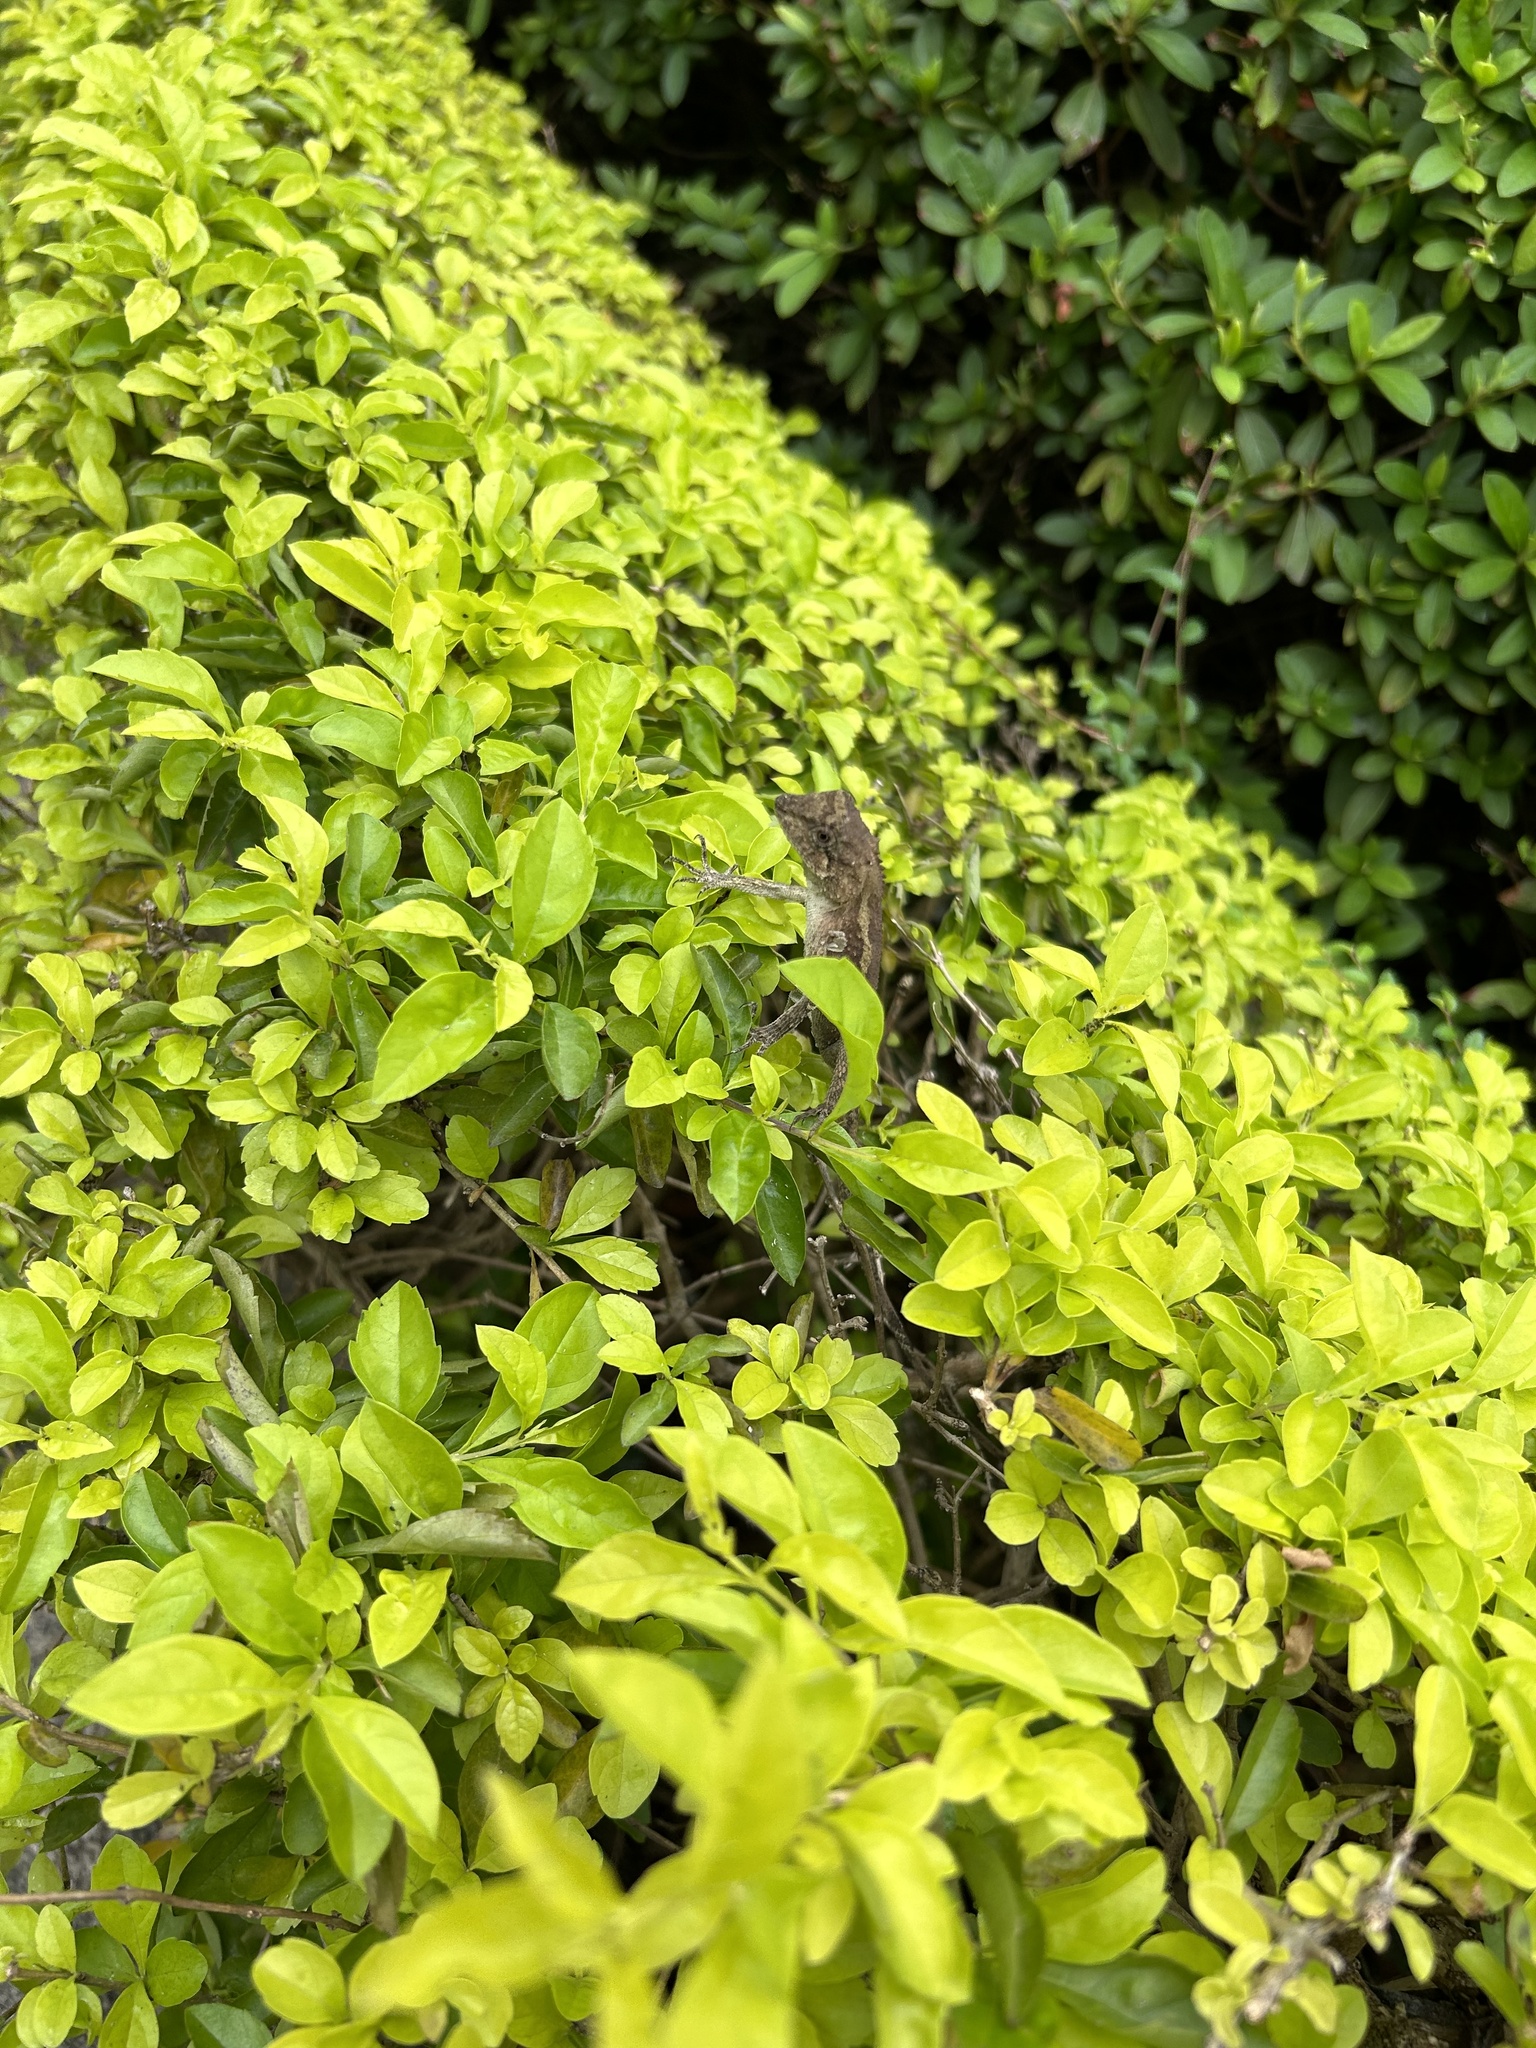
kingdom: Animalia
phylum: Chordata
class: Squamata
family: Agamidae
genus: Diploderma
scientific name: Diploderma swinhonis
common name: Taiwan japalure
